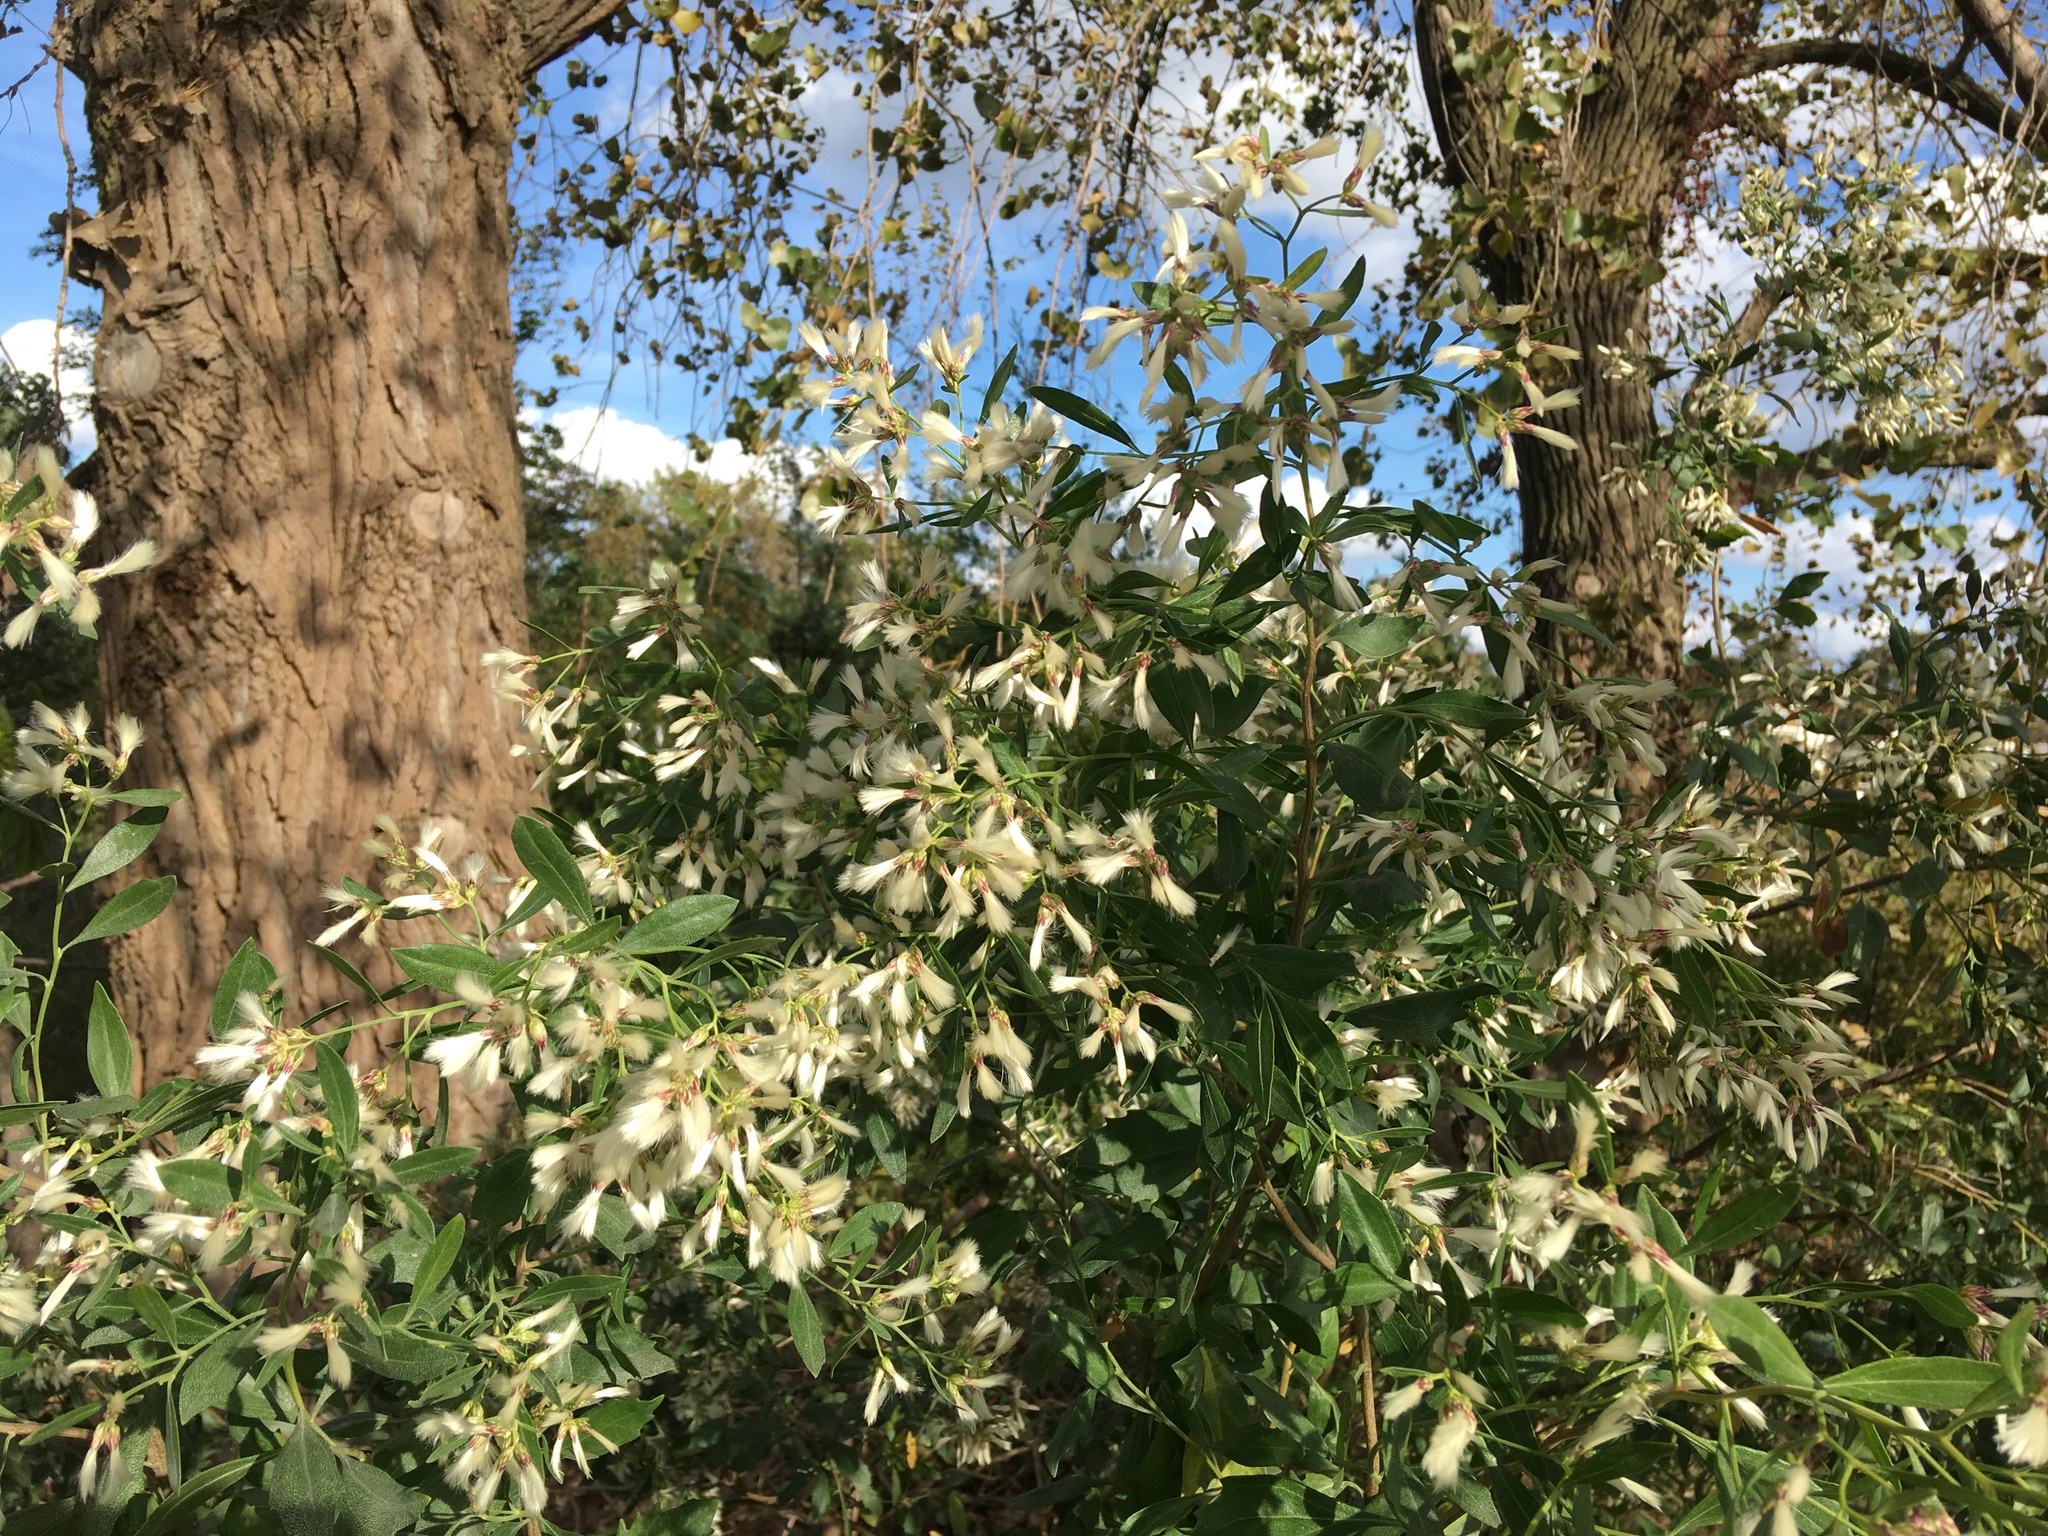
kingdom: Plantae
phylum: Tracheophyta
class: Magnoliopsida
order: Asterales
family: Asteraceae
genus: Baccharis
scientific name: Baccharis halimifolia
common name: Eastern baccharis
